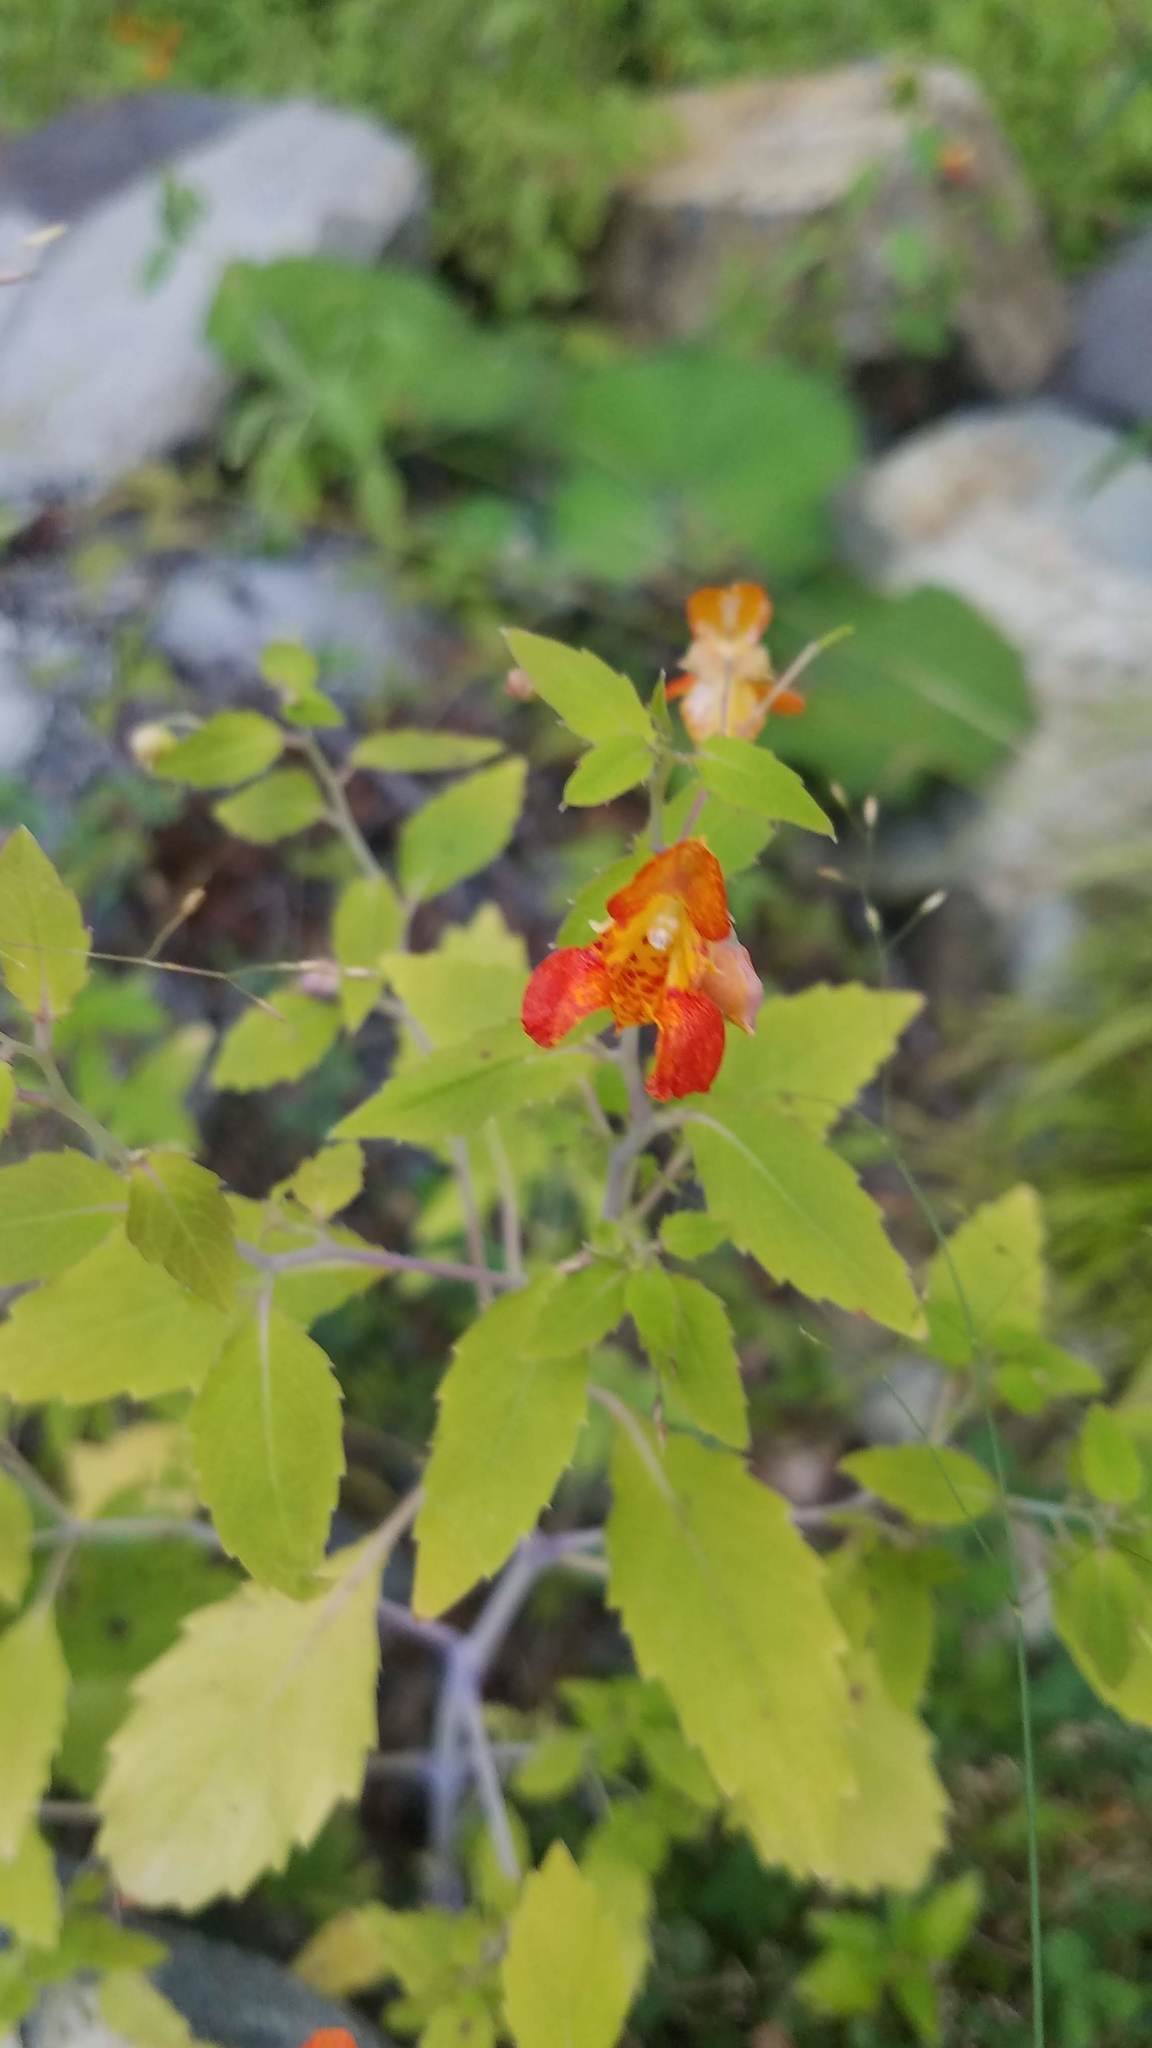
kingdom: Plantae
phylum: Tracheophyta
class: Magnoliopsida
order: Ericales
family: Balsaminaceae
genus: Impatiens
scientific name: Impatiens capensis
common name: Orange balsam
